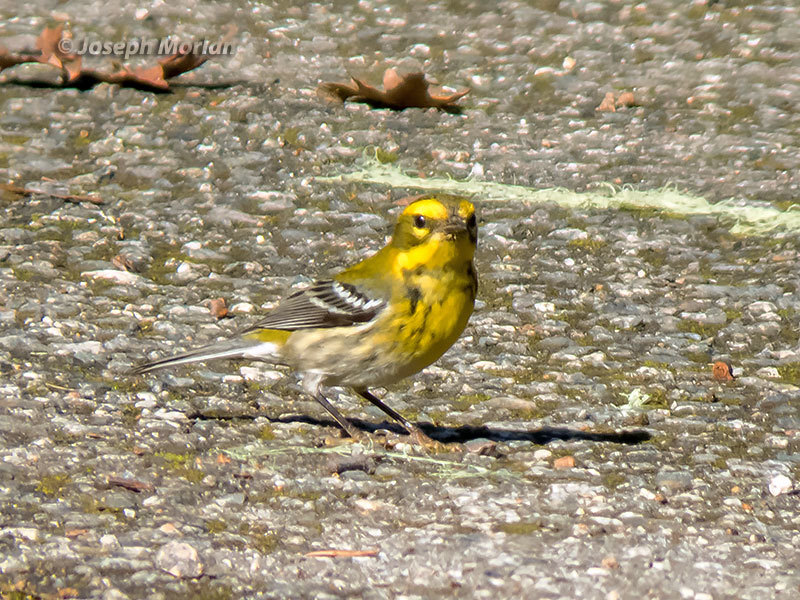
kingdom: Animalia
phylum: Chordata
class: Aves
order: Passeriformes
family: Parulidae
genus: Setophaga
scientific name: Setophaga townsendi
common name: Townsend's warbler
